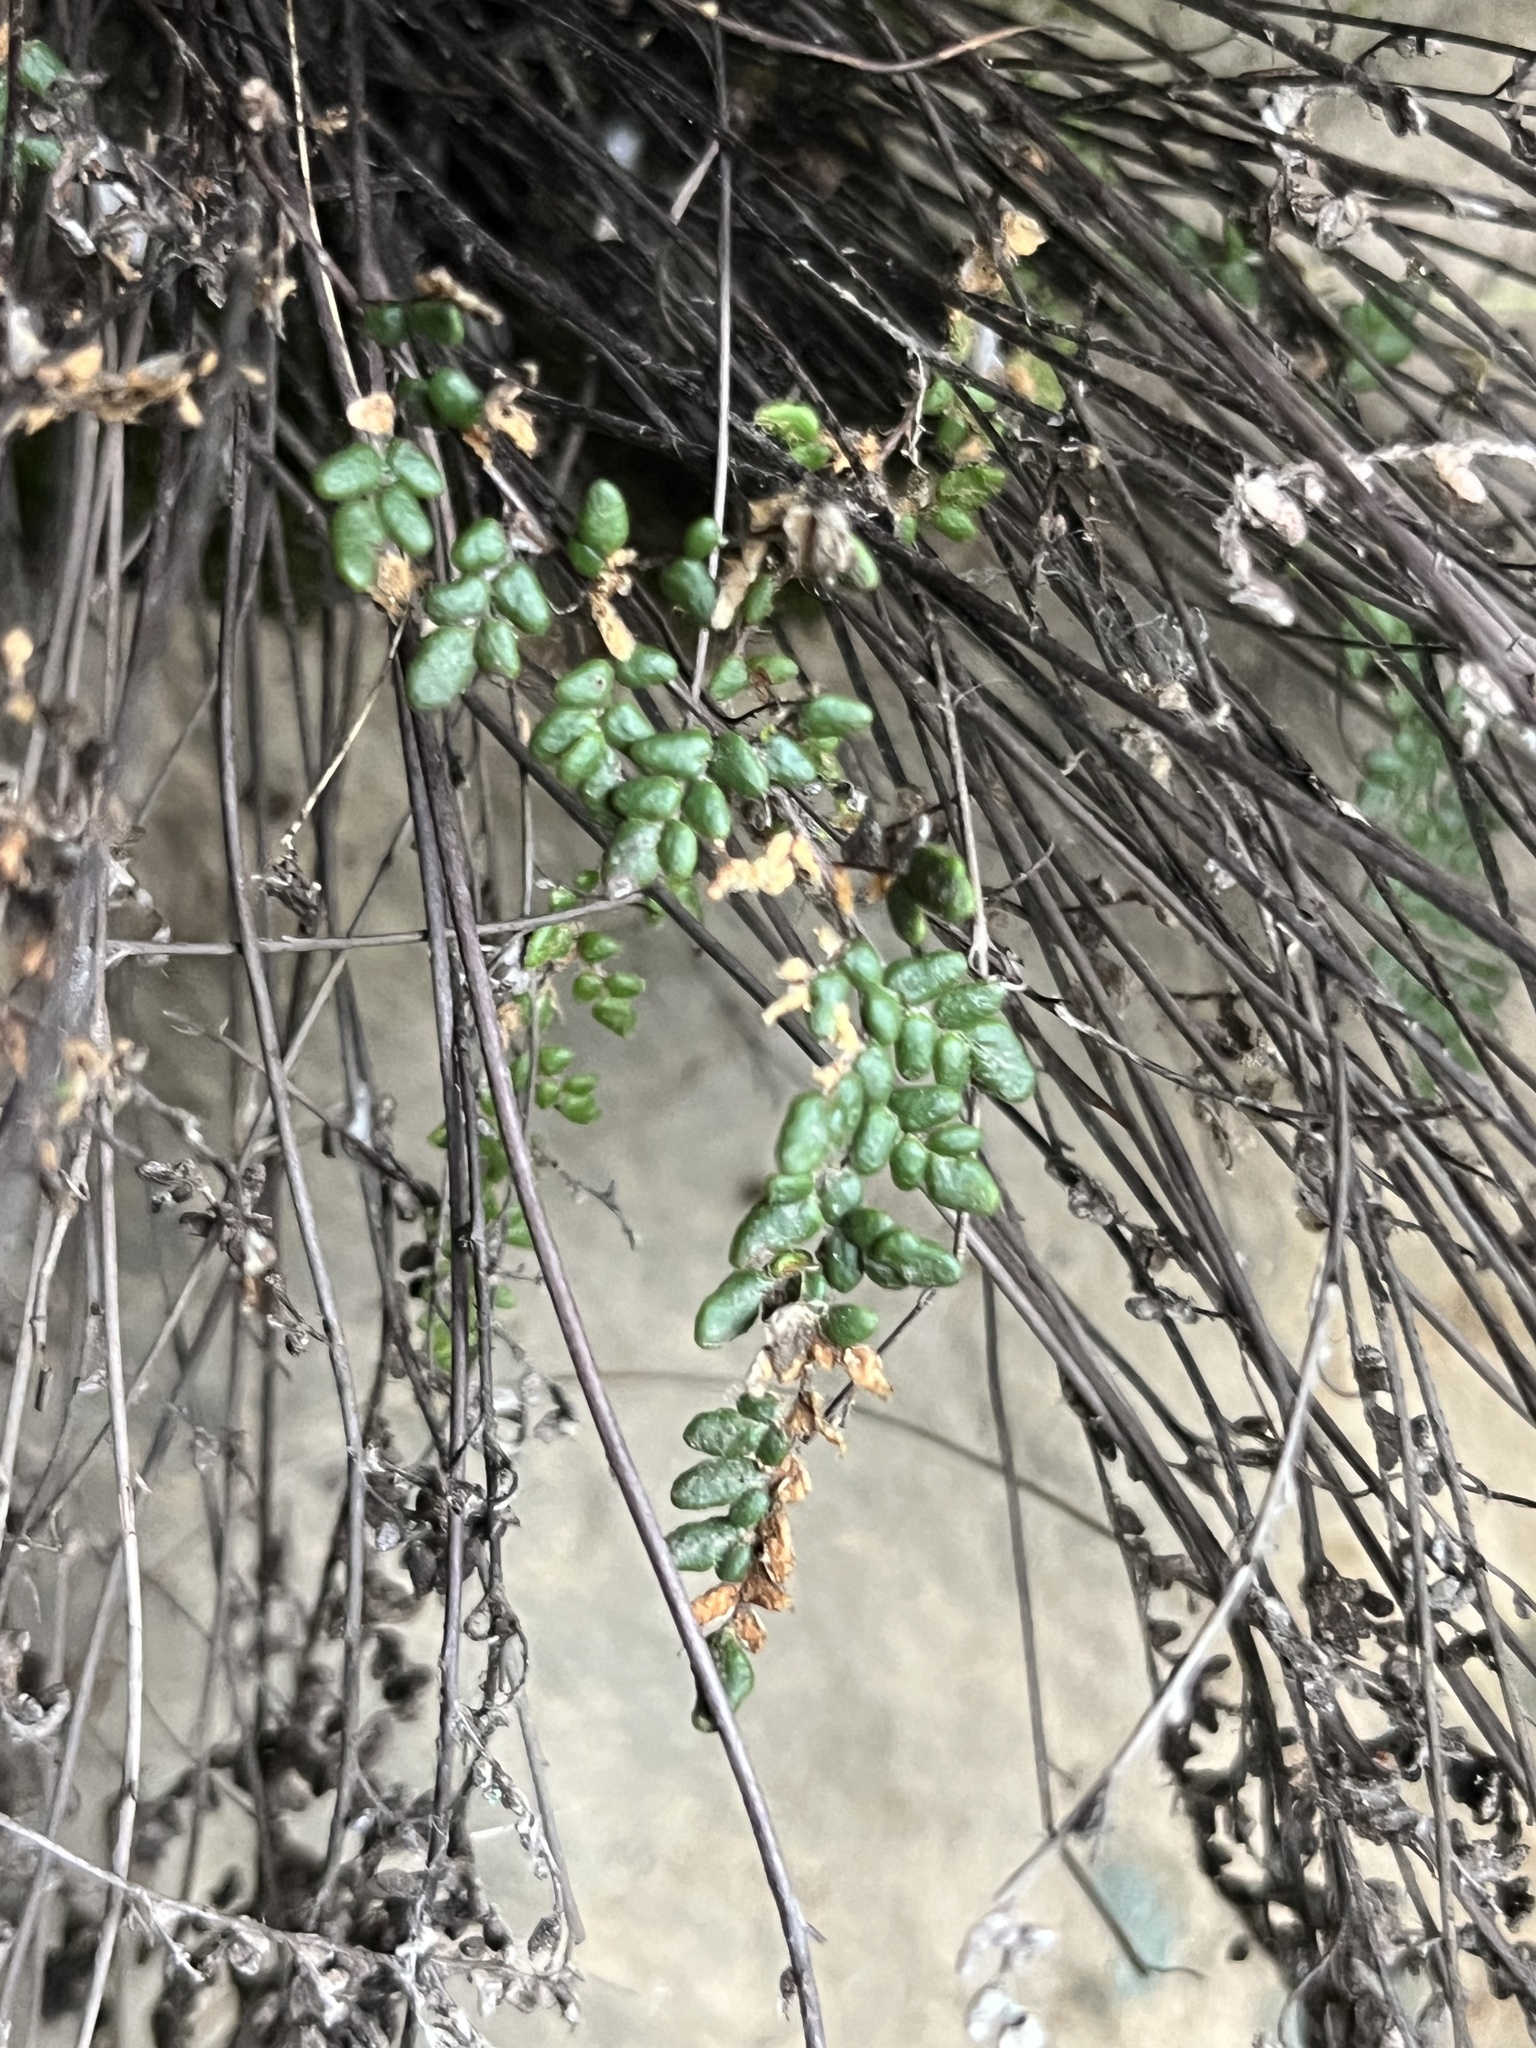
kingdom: Plantae
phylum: Tracheophyta
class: Polypodiopsida
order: Polypodiales
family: Pteridaceae
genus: Myriopteris
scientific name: Myriopteris gracillima
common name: Lace fern
